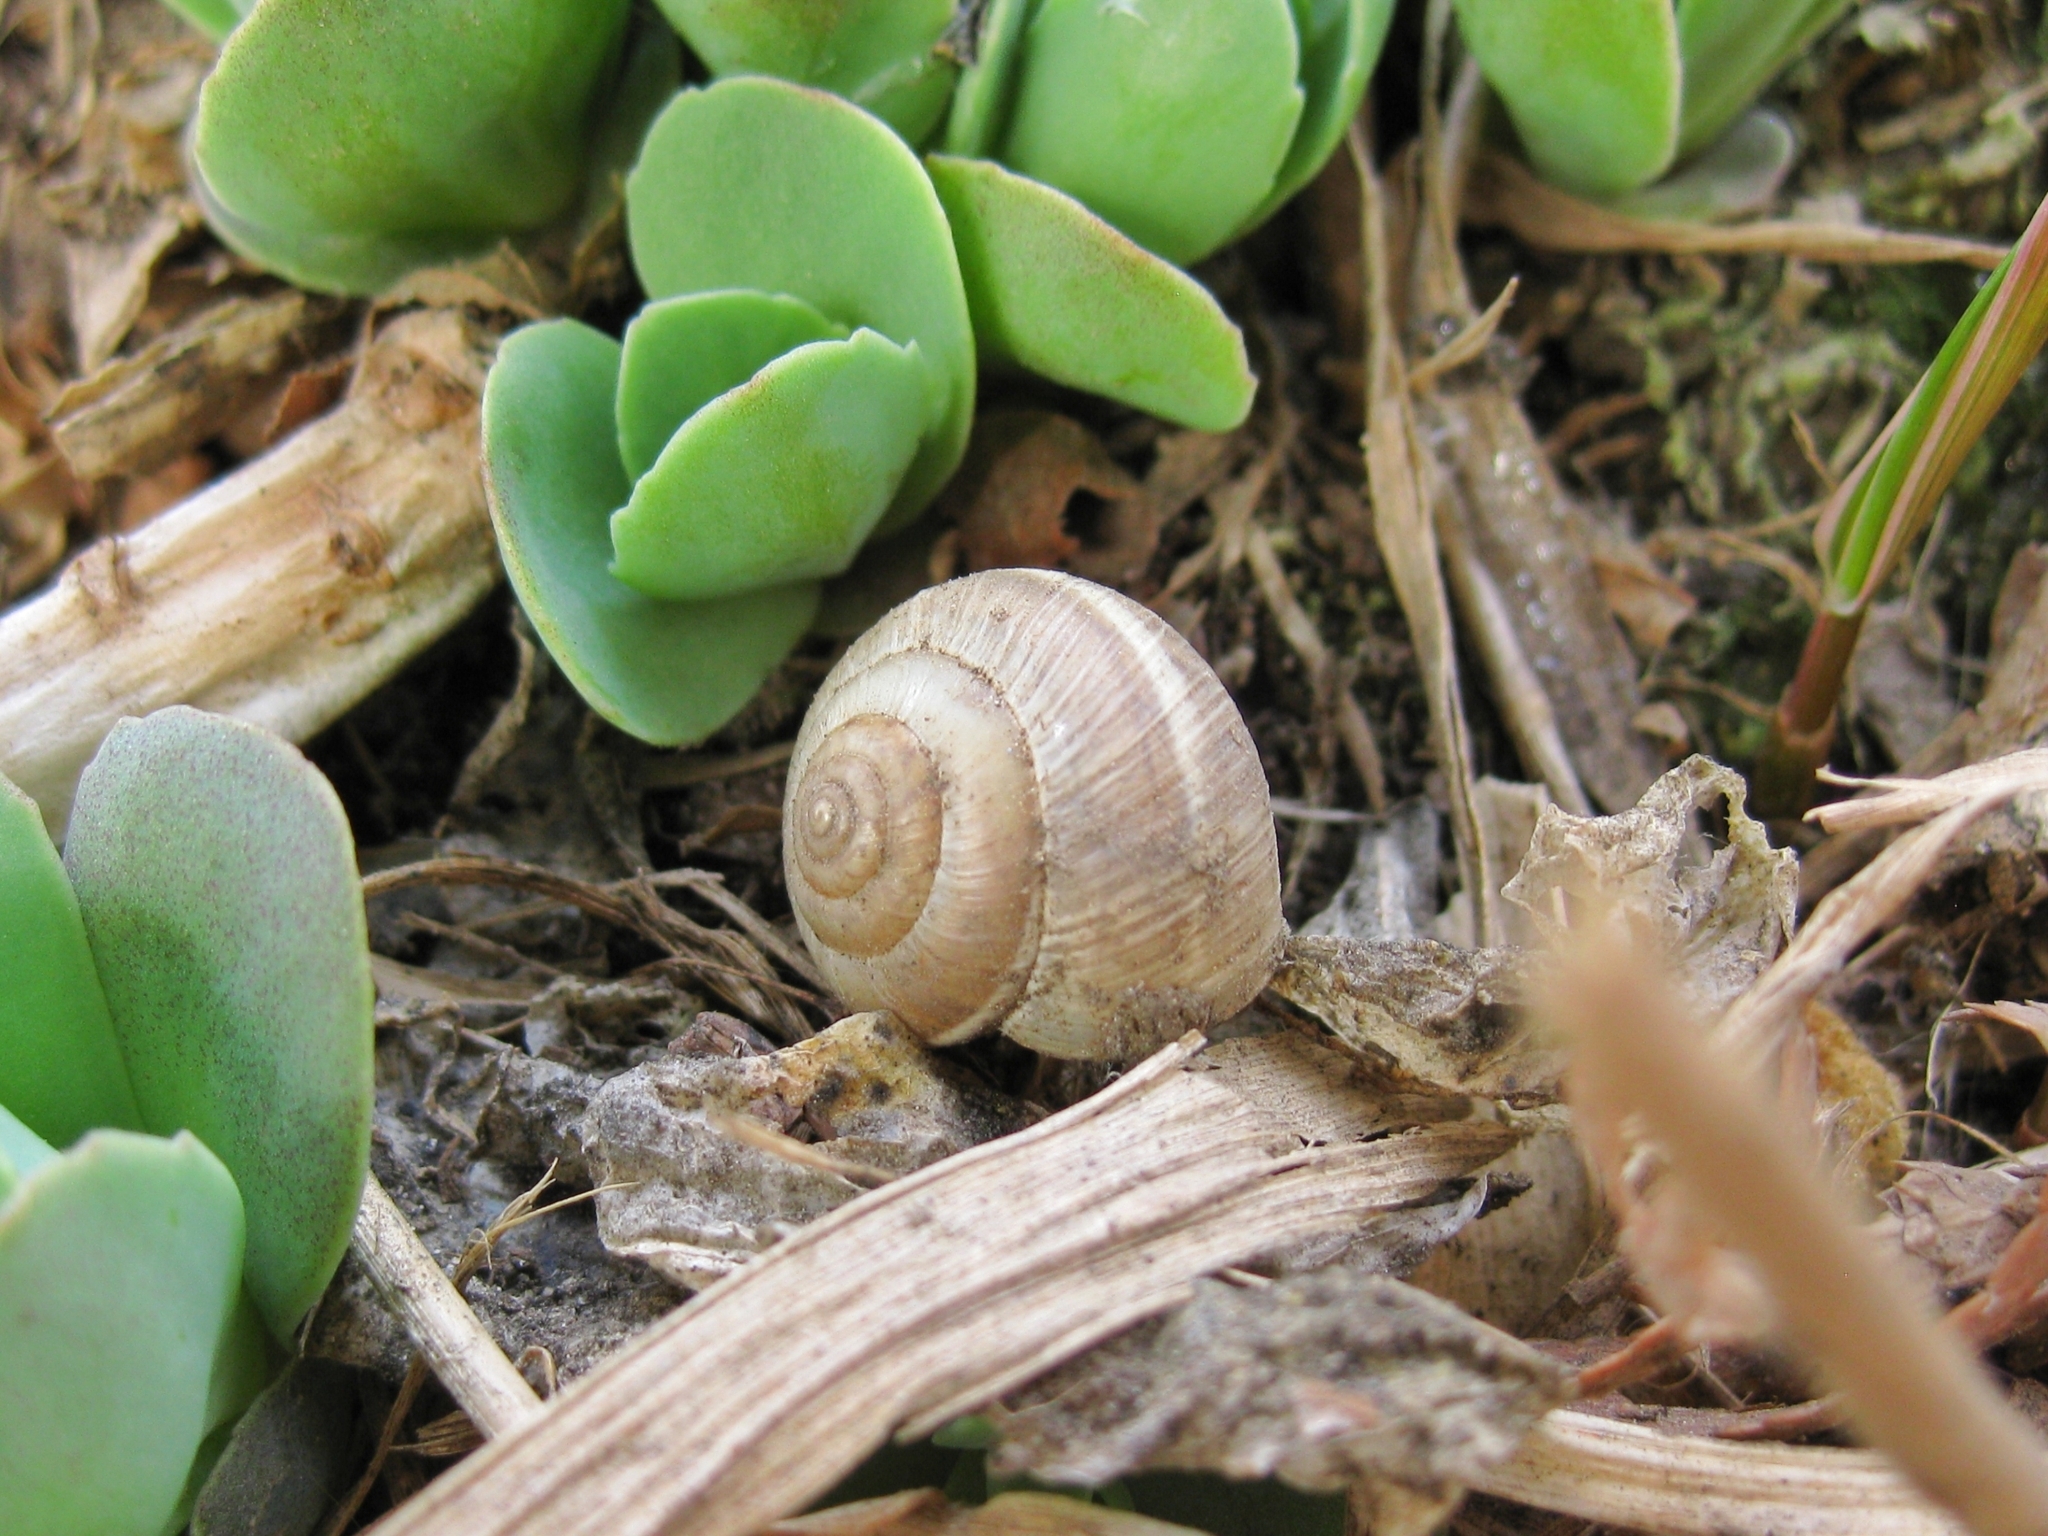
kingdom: Animalia
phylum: Mollusca
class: Gastropoda
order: Stylommatophora
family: Hygromiidae
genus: Harmozica
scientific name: Harmozica ravergiensis
